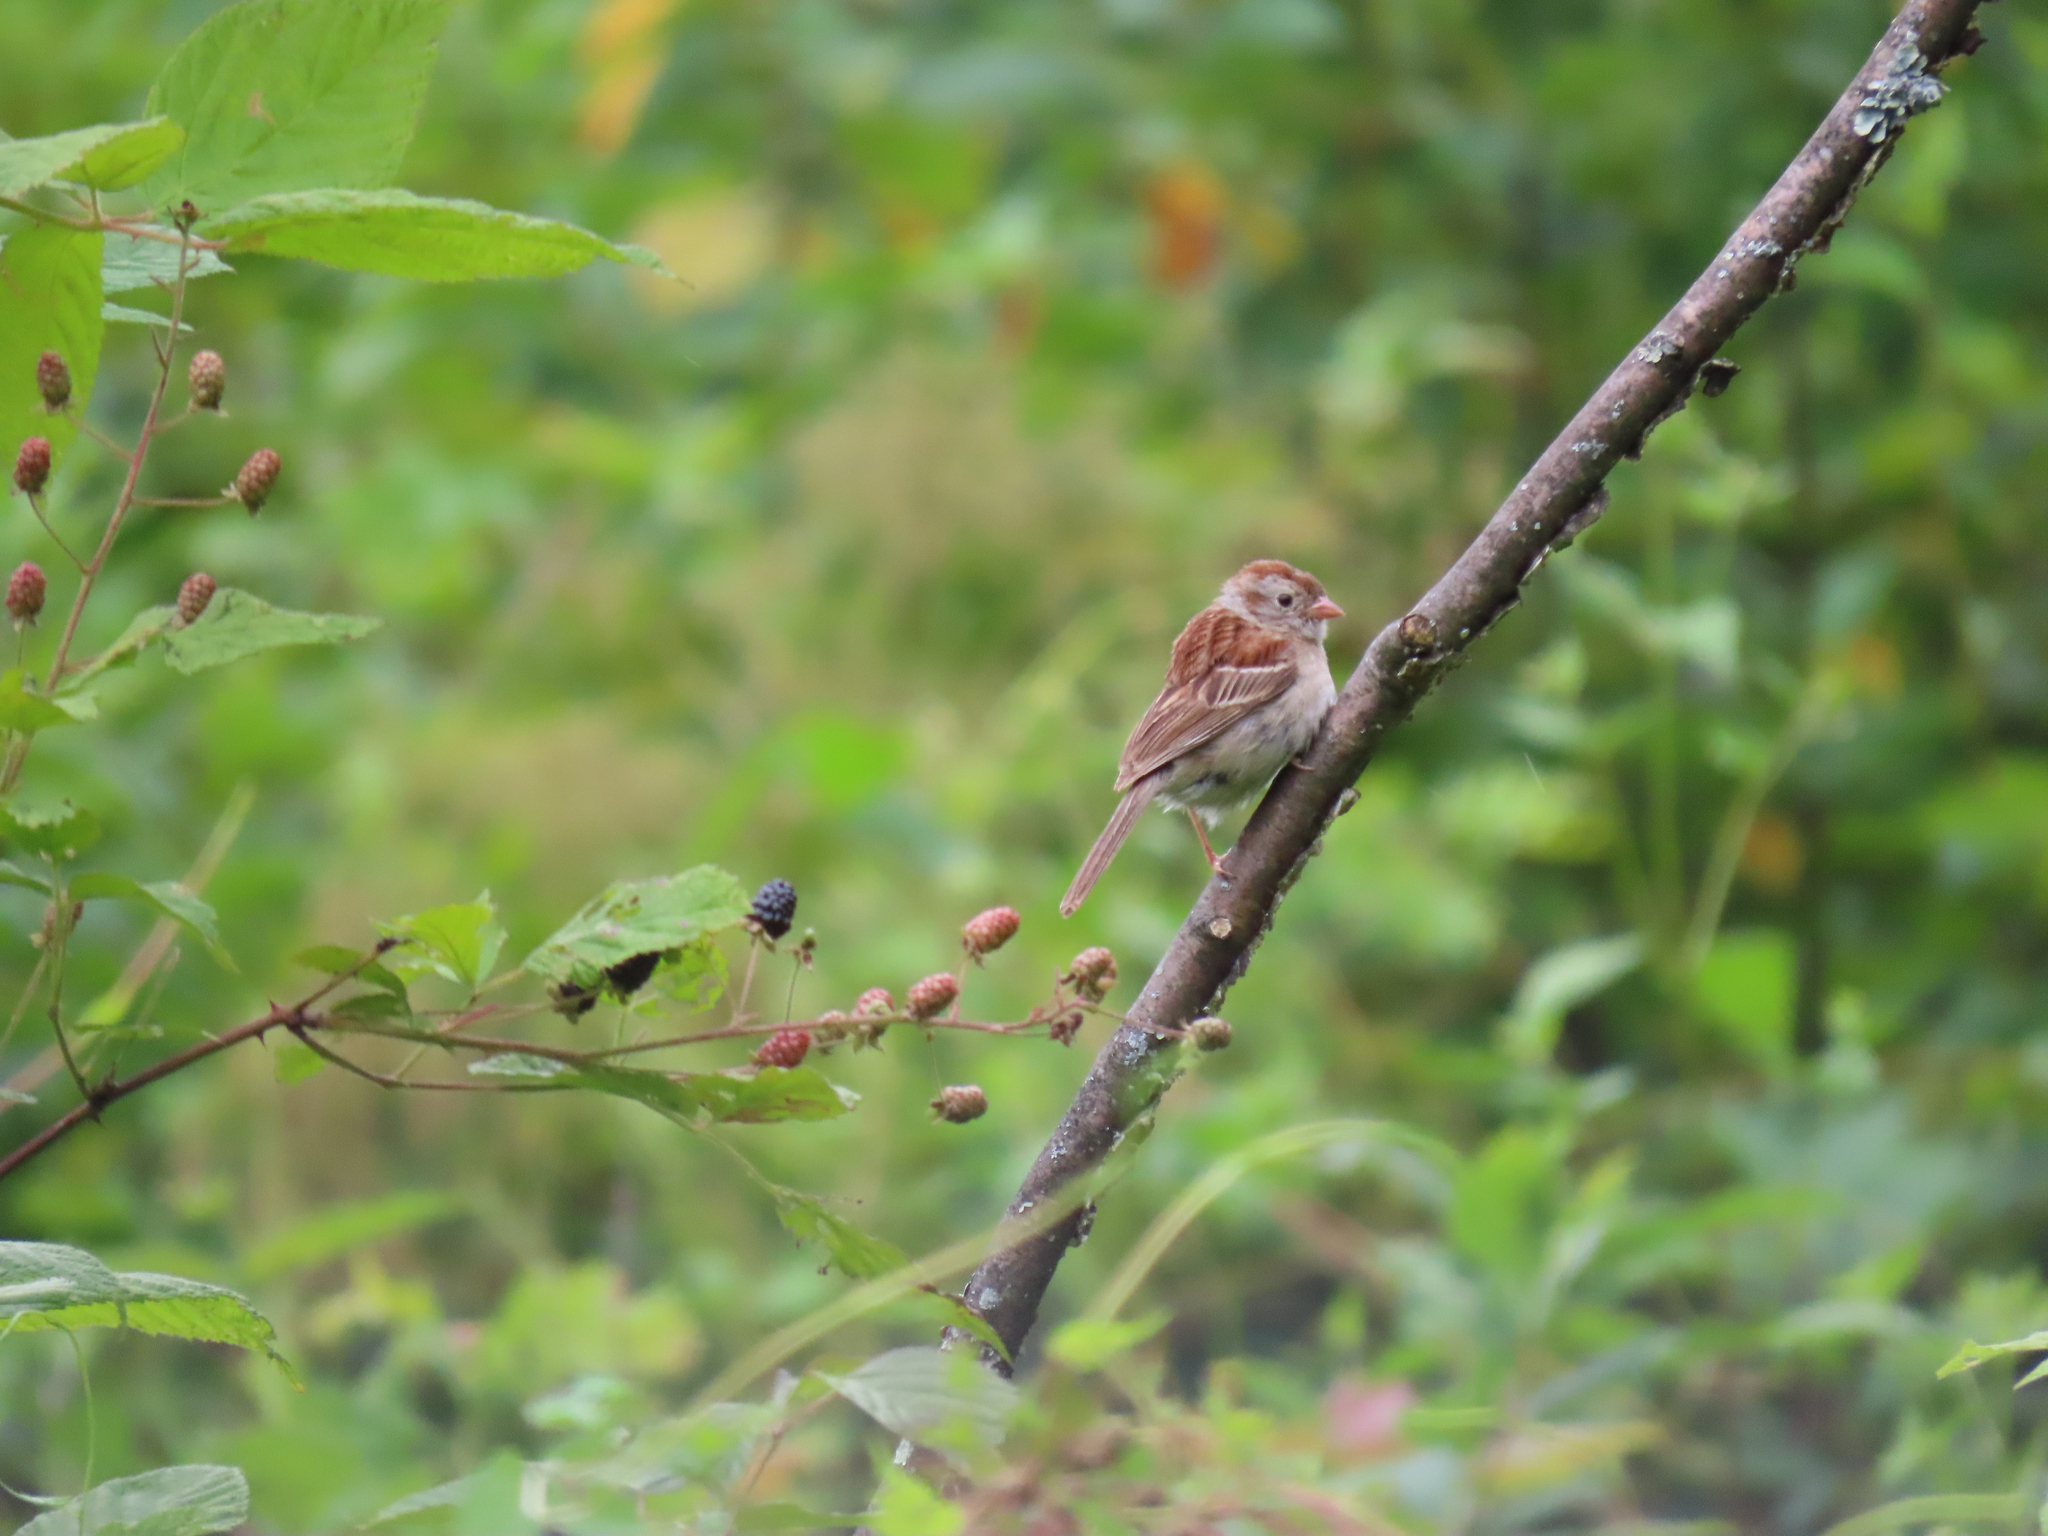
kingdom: Animalia
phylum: Chordata
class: Aves
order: Passeriformes
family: Passerellidae
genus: Spizella
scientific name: Spizella pusilla
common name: Field sparrow
